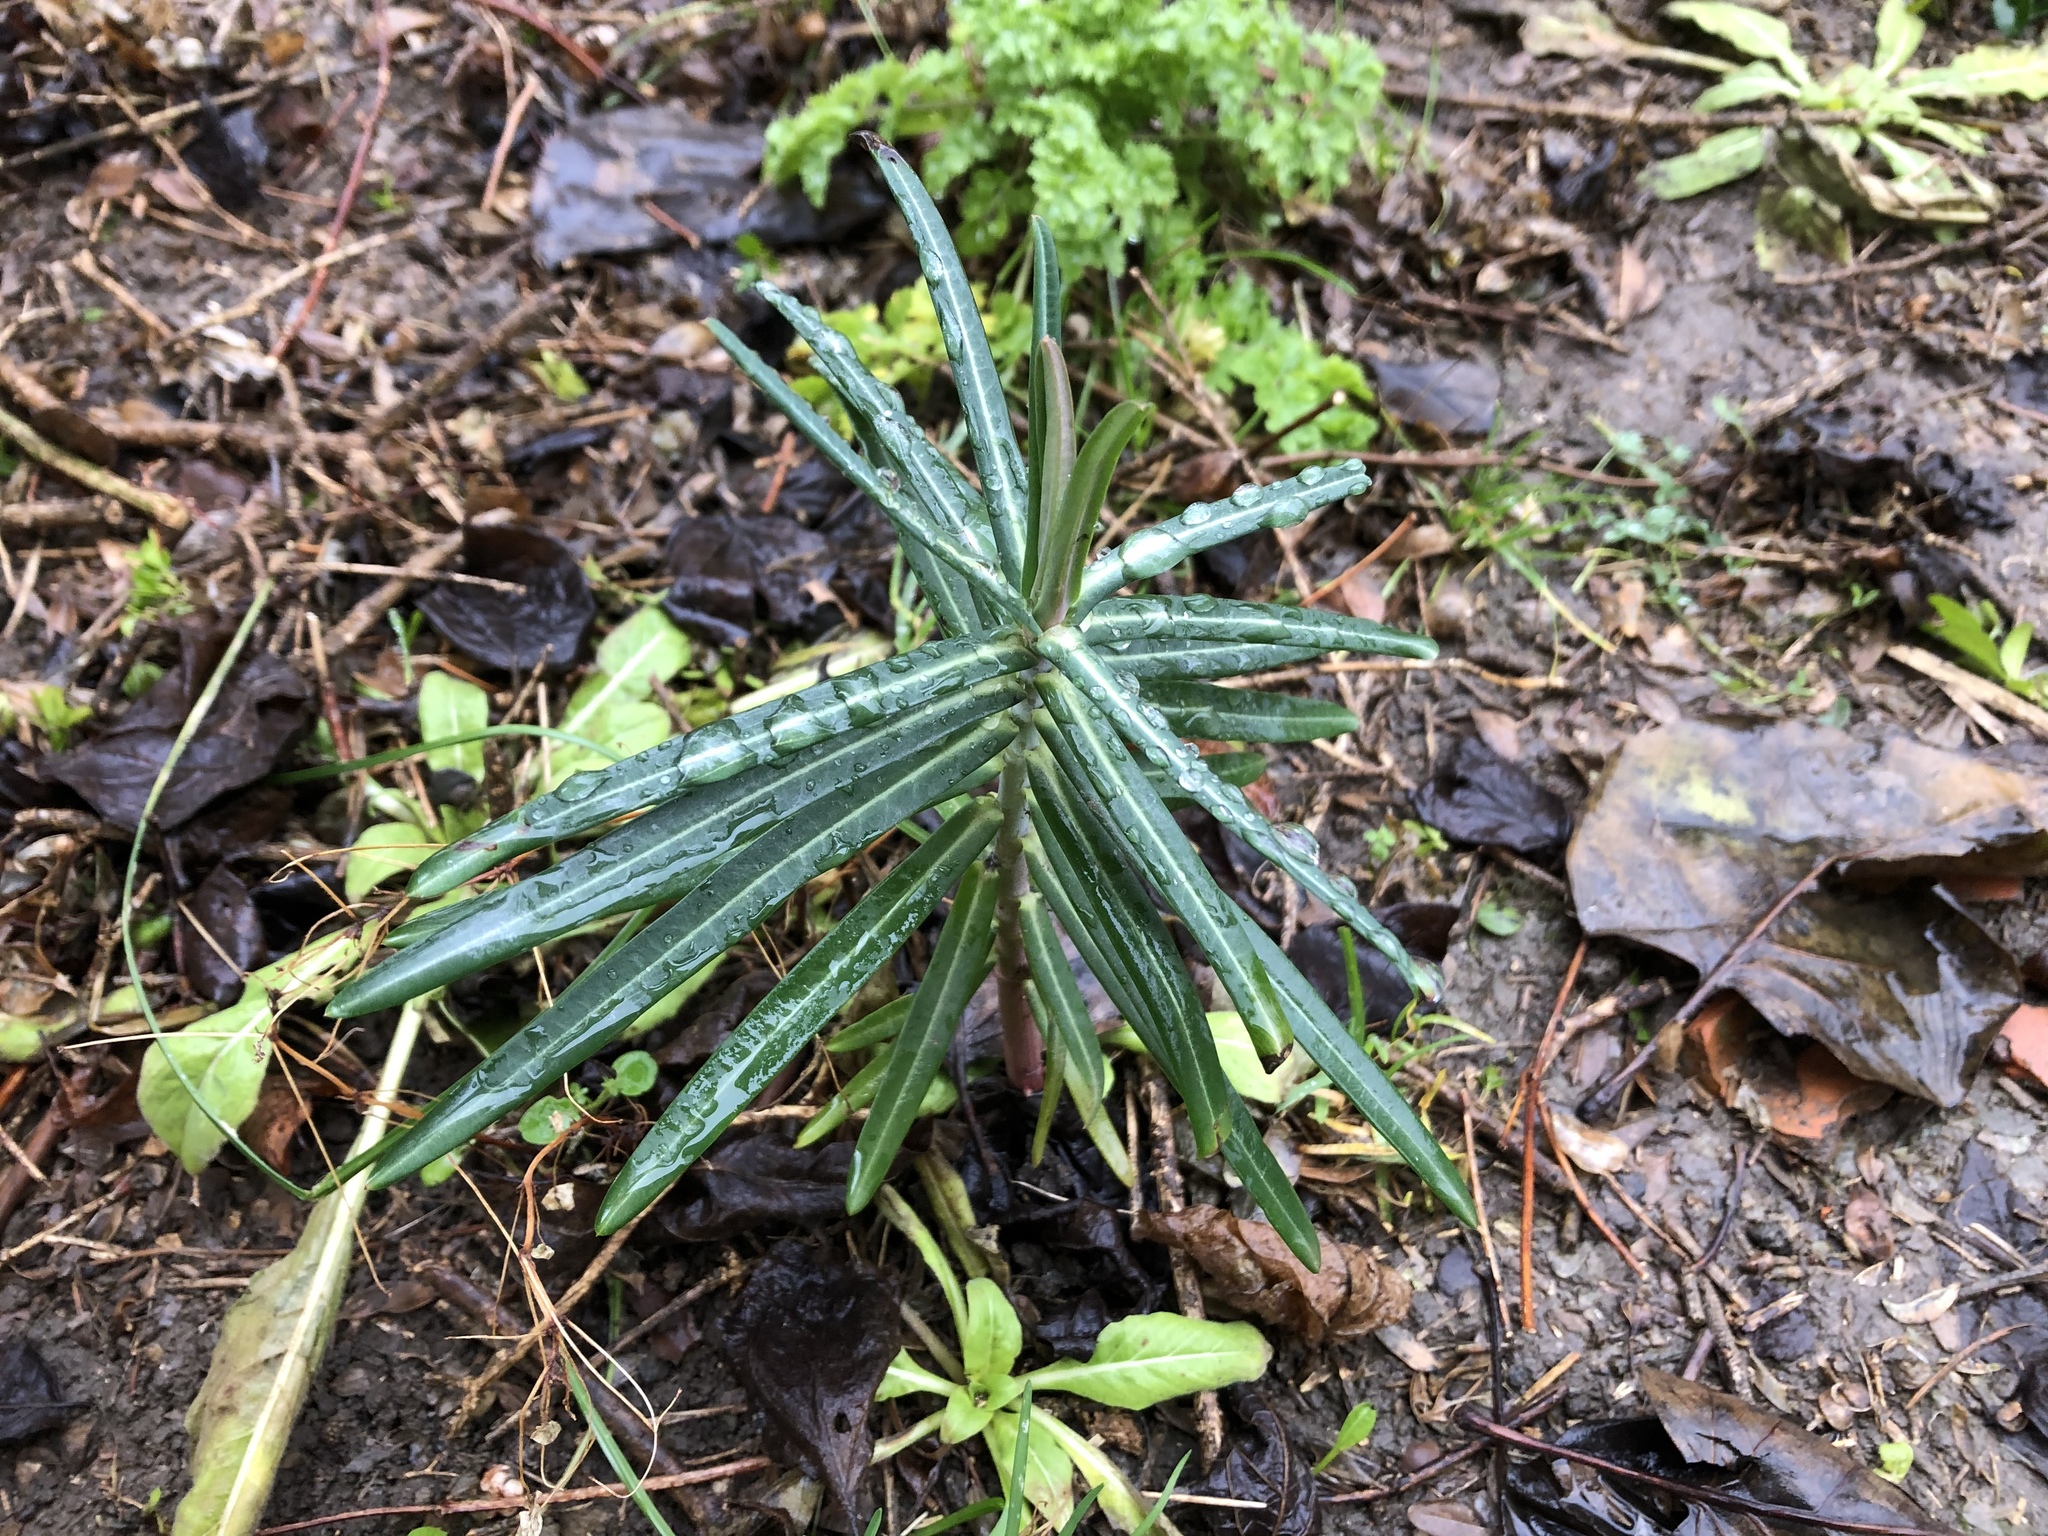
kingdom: Plantae
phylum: Tracheophyta
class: Magnoliopsida
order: Malpighiales
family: Euphorbiaceae
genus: Euphorbia
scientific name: Euphorbia lathyris
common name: Caper spurge
